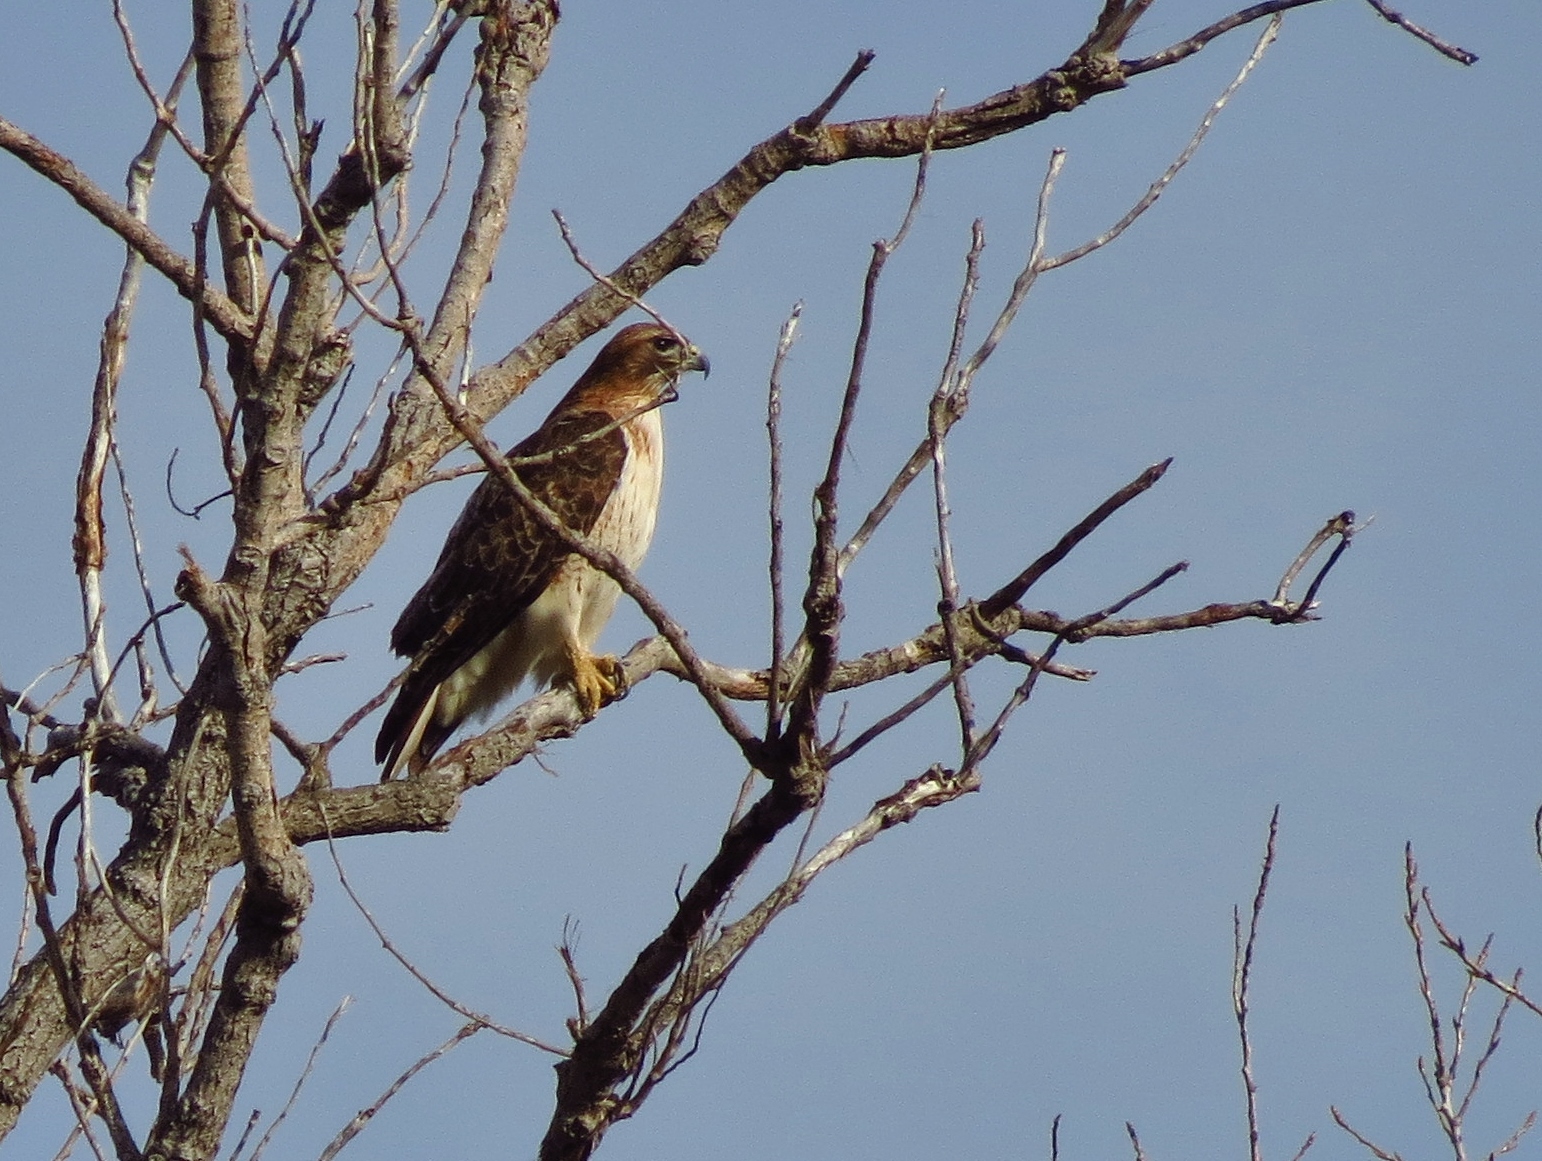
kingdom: Animalia
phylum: Chordata
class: Aves
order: Accipitriformes
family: Accipitridae
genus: Buteo
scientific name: Buteo jamaicensis
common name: Red-tailed hawk
